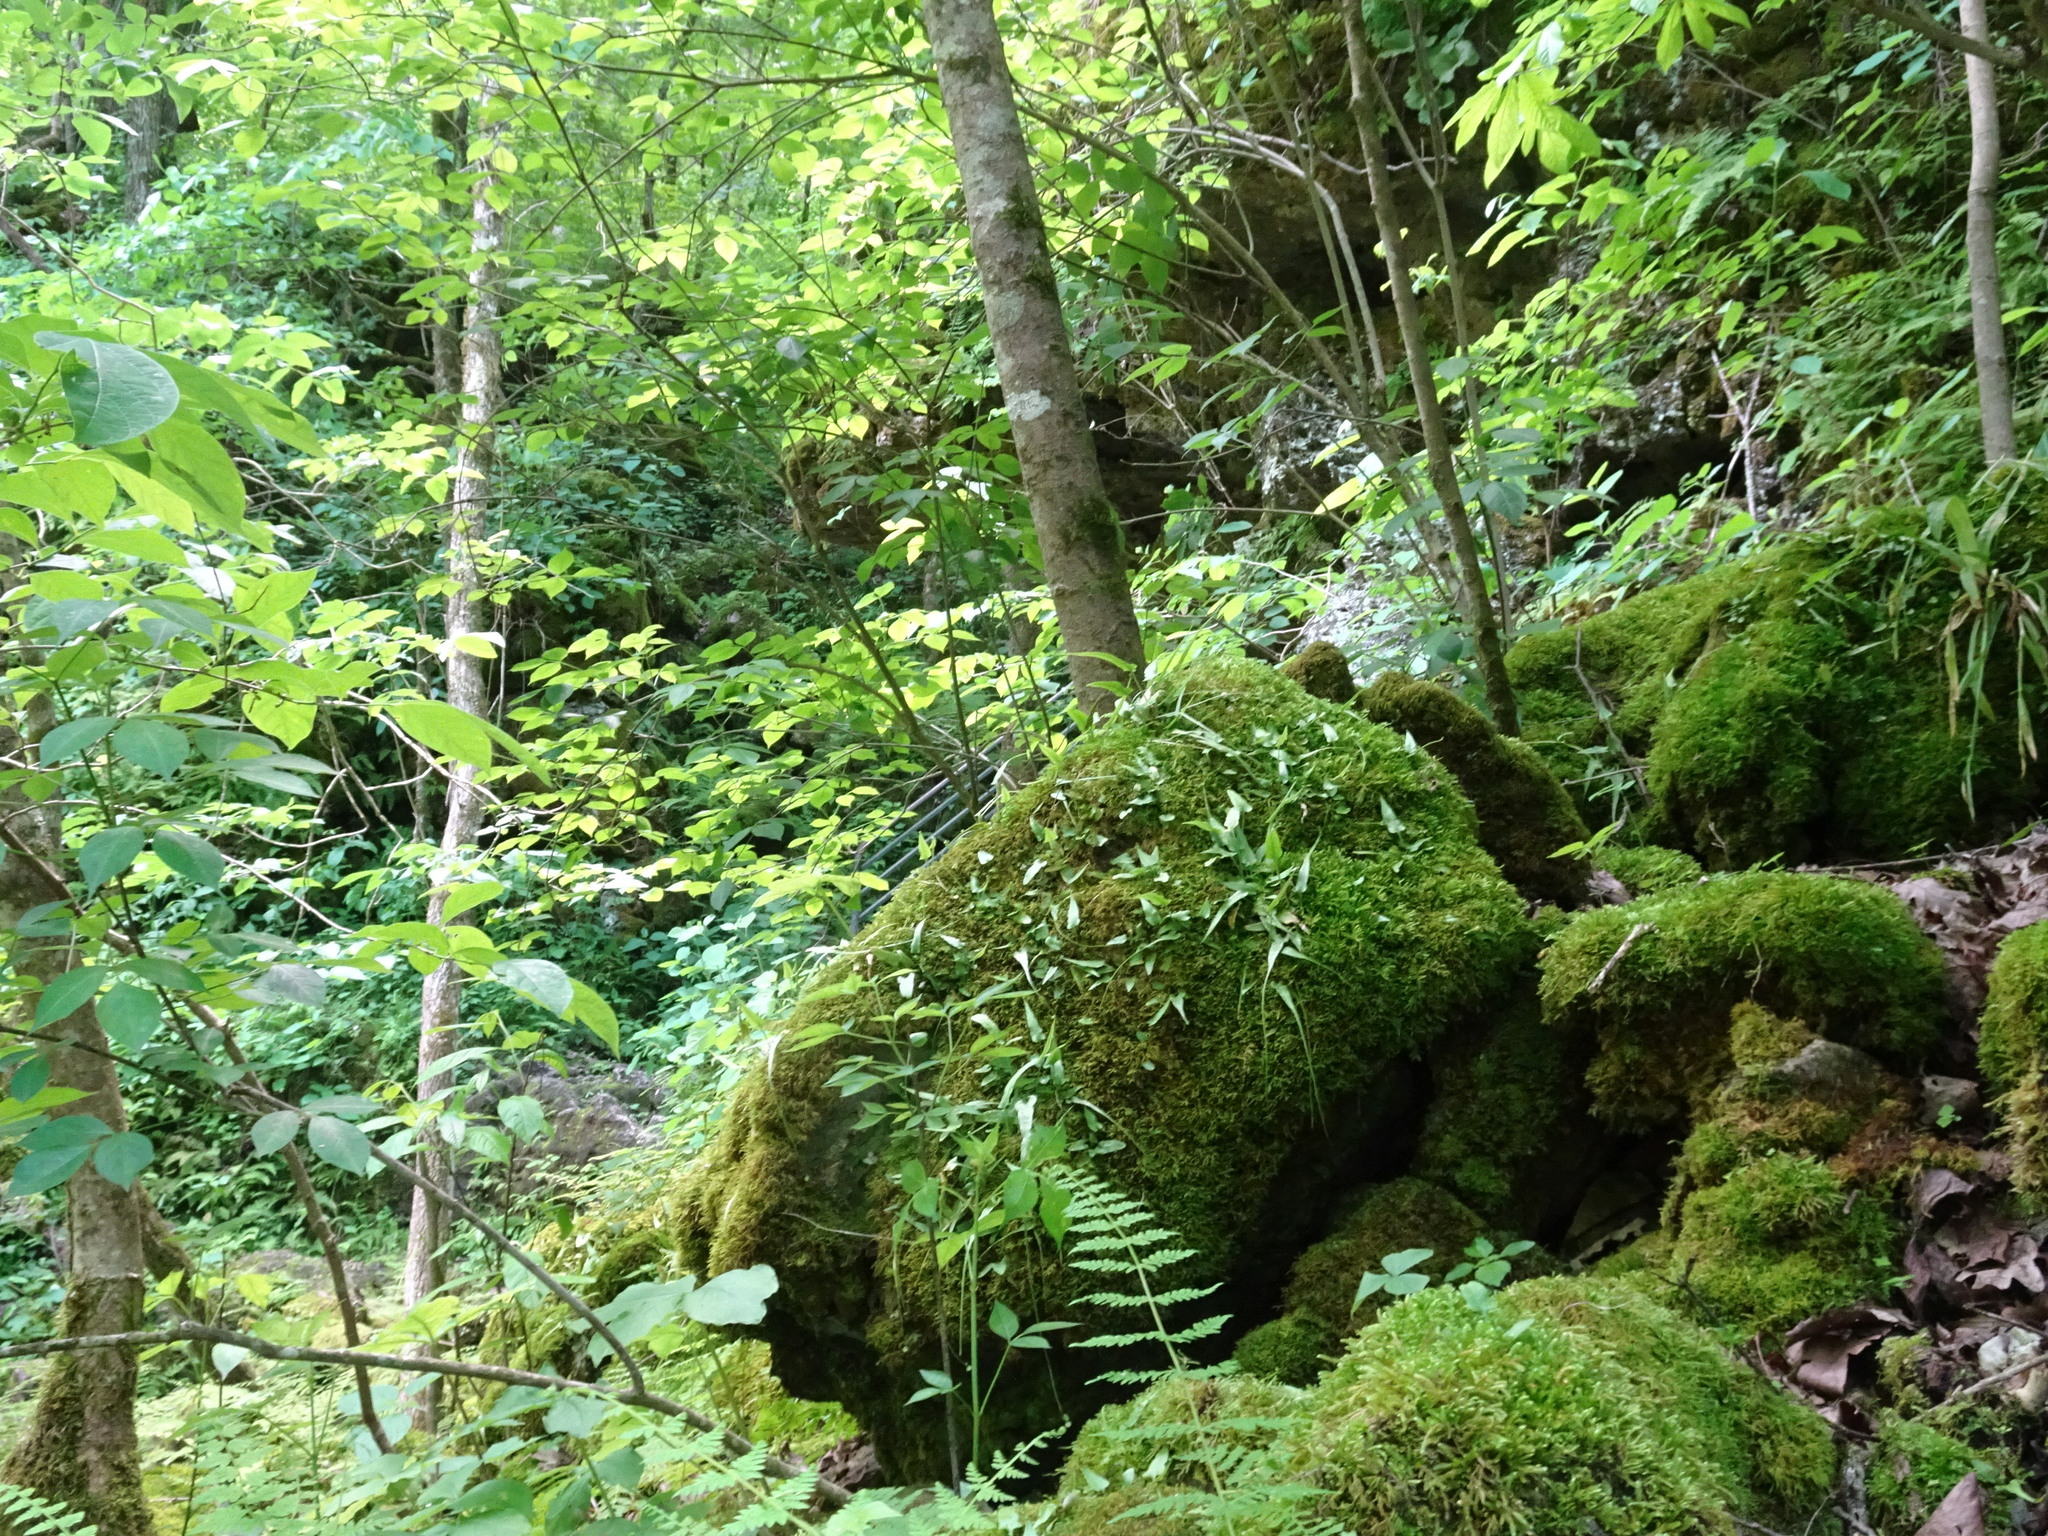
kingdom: Plantae
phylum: Tracheophyta
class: Polypodiopsida
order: Polypodiales
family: Aspleniaceae
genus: Asplenium
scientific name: Asplenium rhizophyllum
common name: Walking fern
